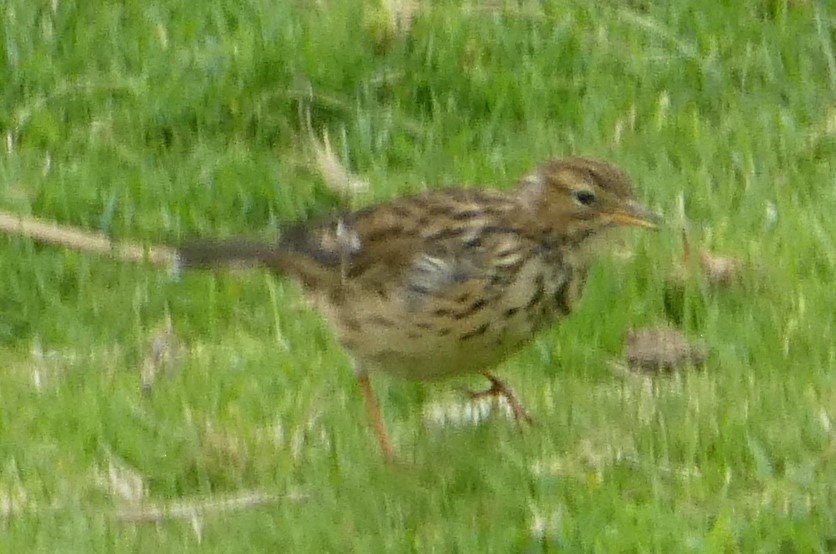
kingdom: Animalia
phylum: Chordata
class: Aves
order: Passeriformes
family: Motacillidae
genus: Anthus
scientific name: Anthus pratensis
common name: Meadow pipit
